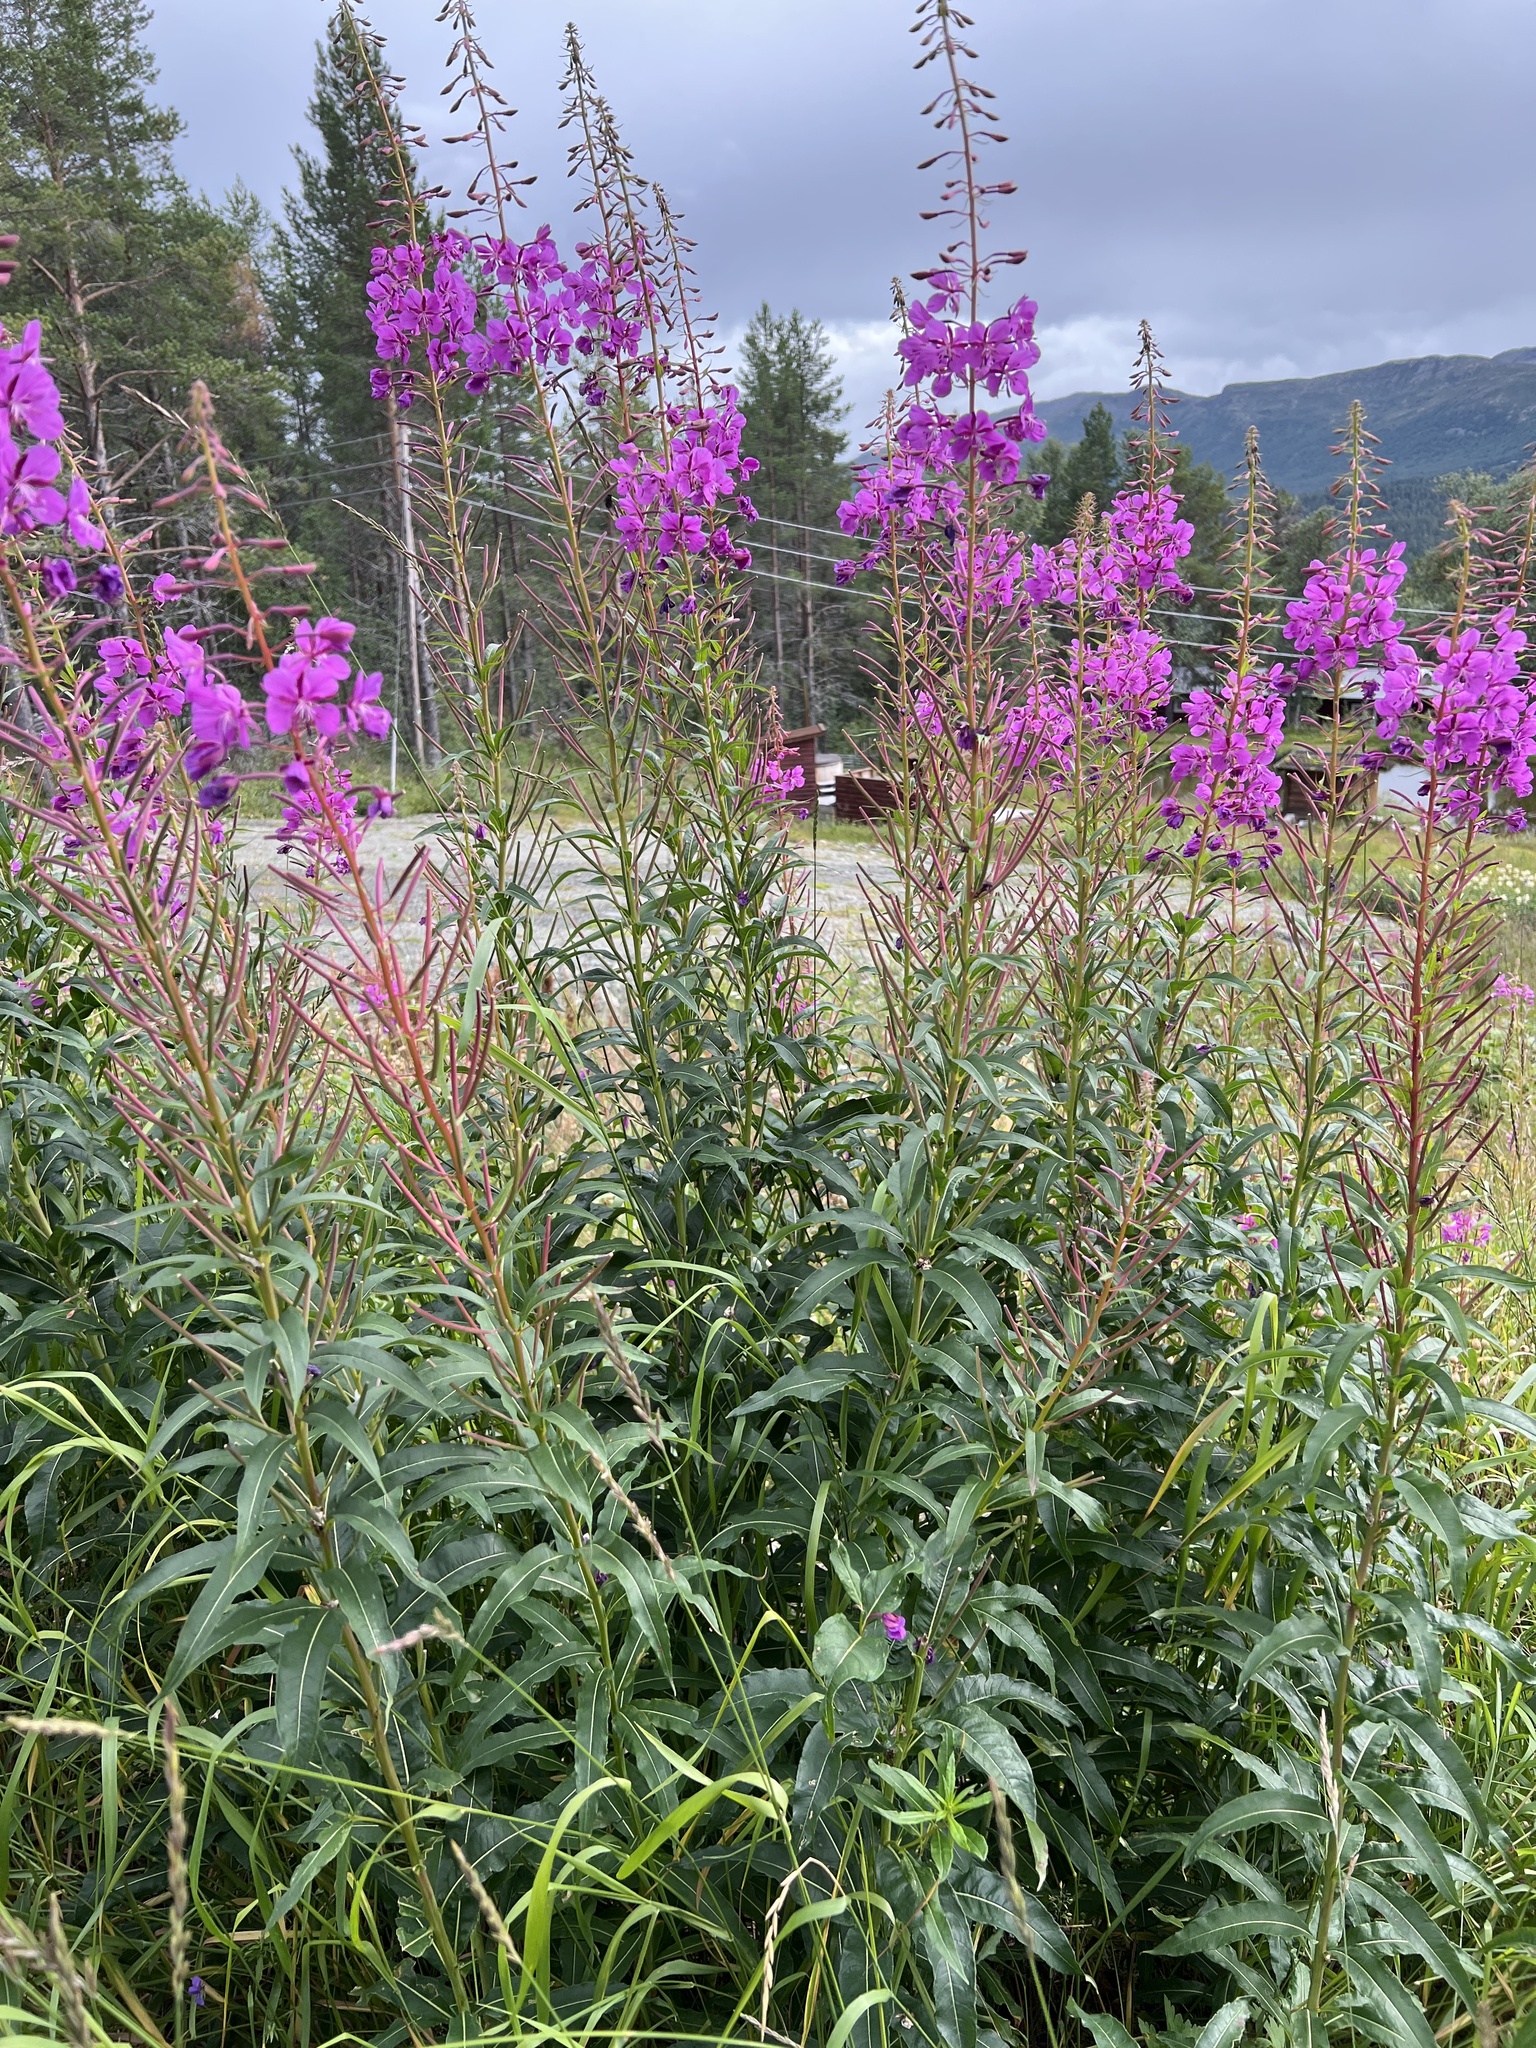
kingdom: Plantae
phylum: Tracheophyta
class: Magnoliopsida
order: Myrtales
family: Onagraceae
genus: Chamaenerion
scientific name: Chamaenerion angustifolium
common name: Fireweed
